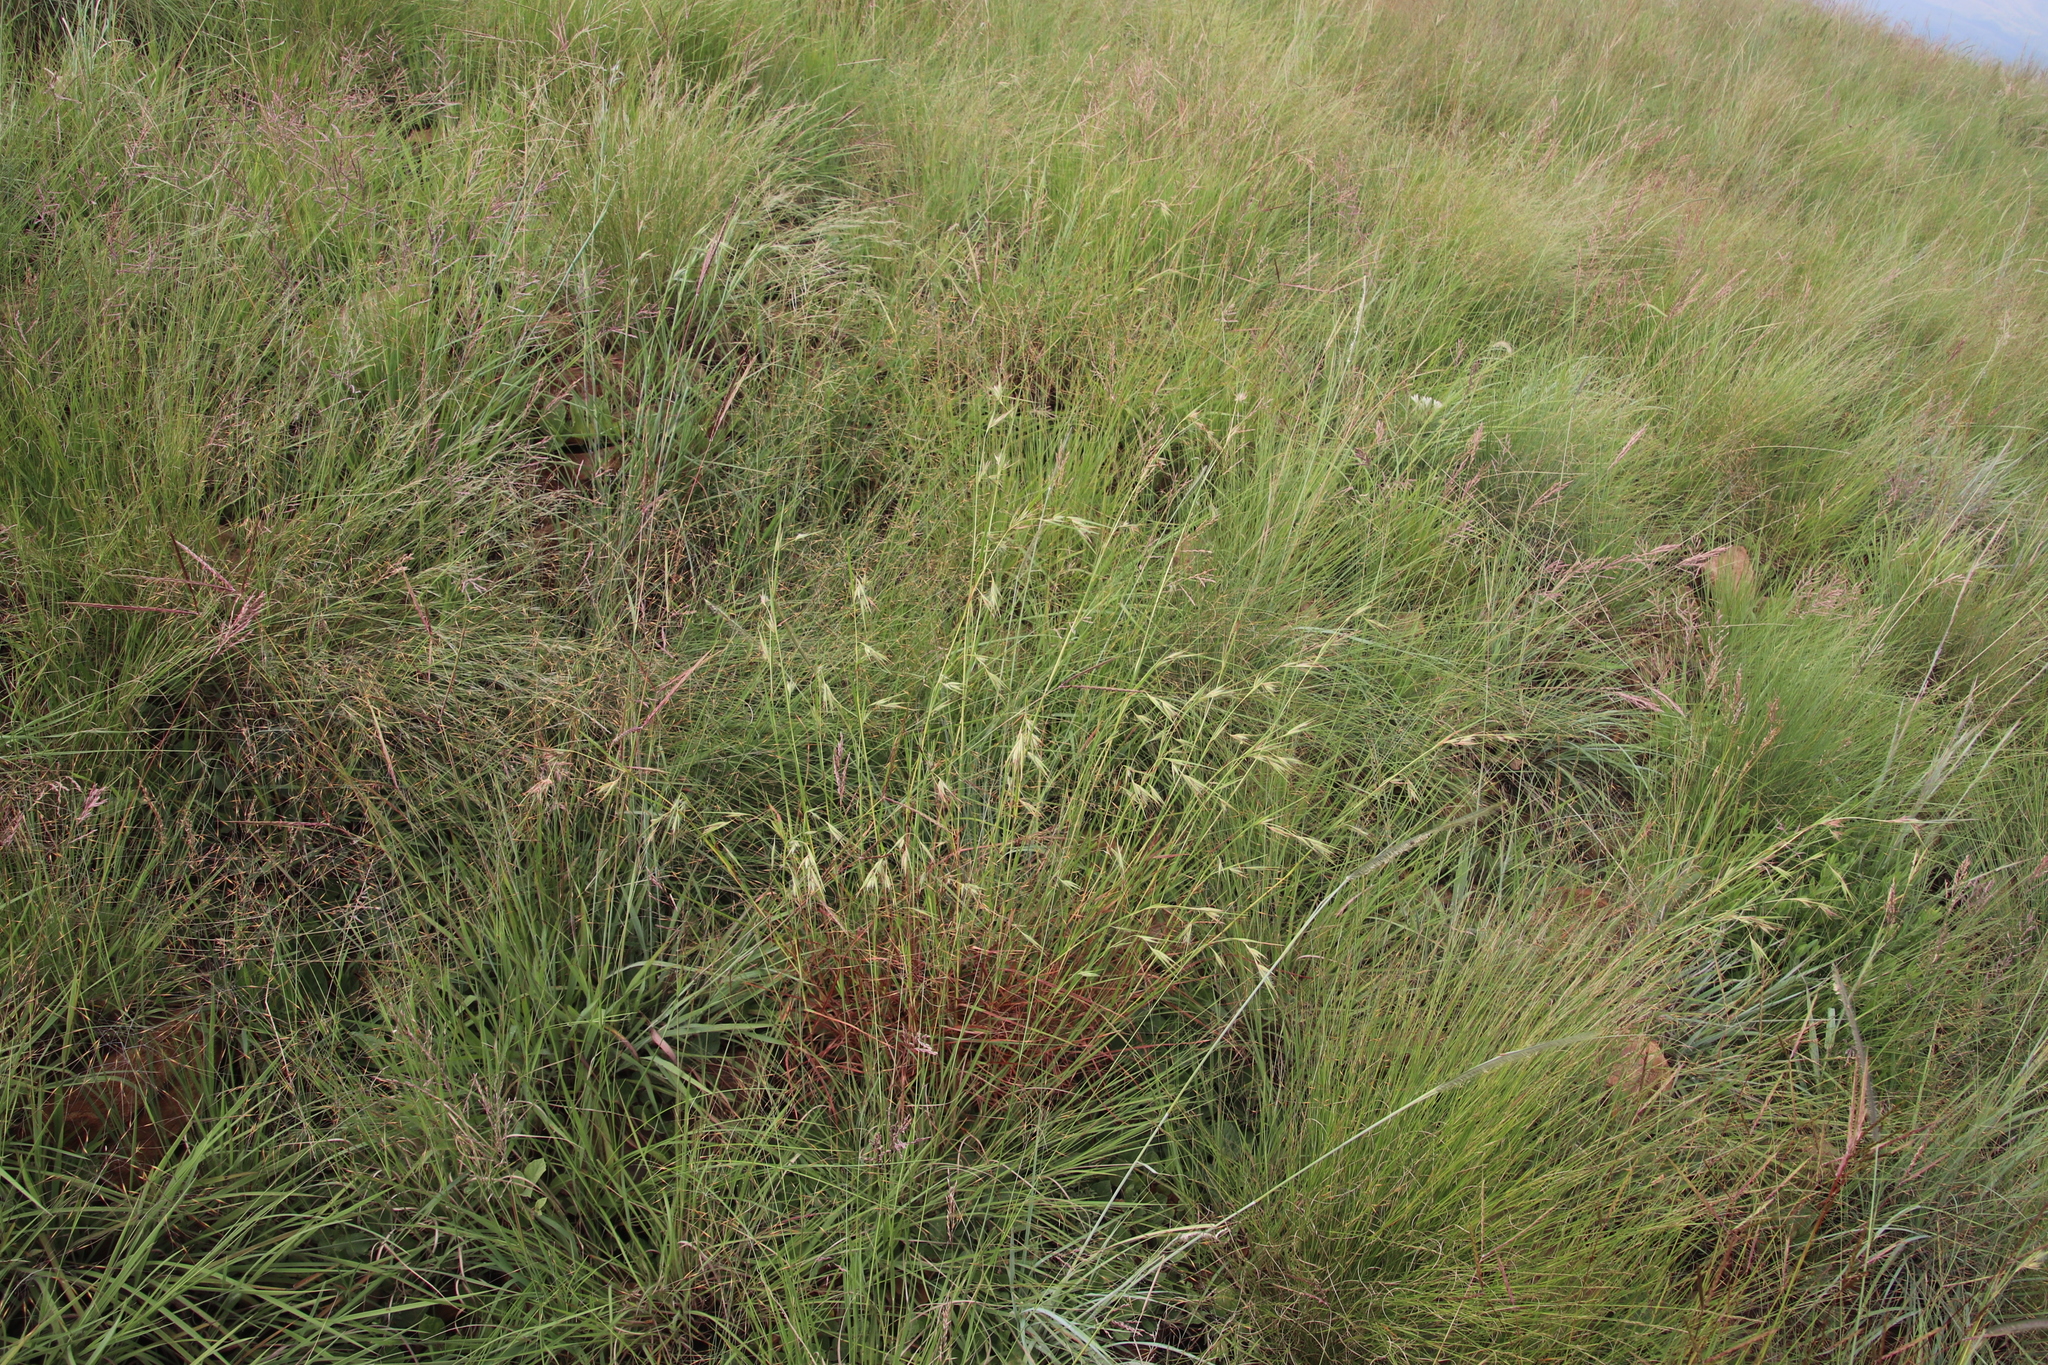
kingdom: Plantae
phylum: Tracheophyta
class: Liliopsida
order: Poales
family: Poaceae
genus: Themeda
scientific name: Themeda triandra
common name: Kangaroo grass
